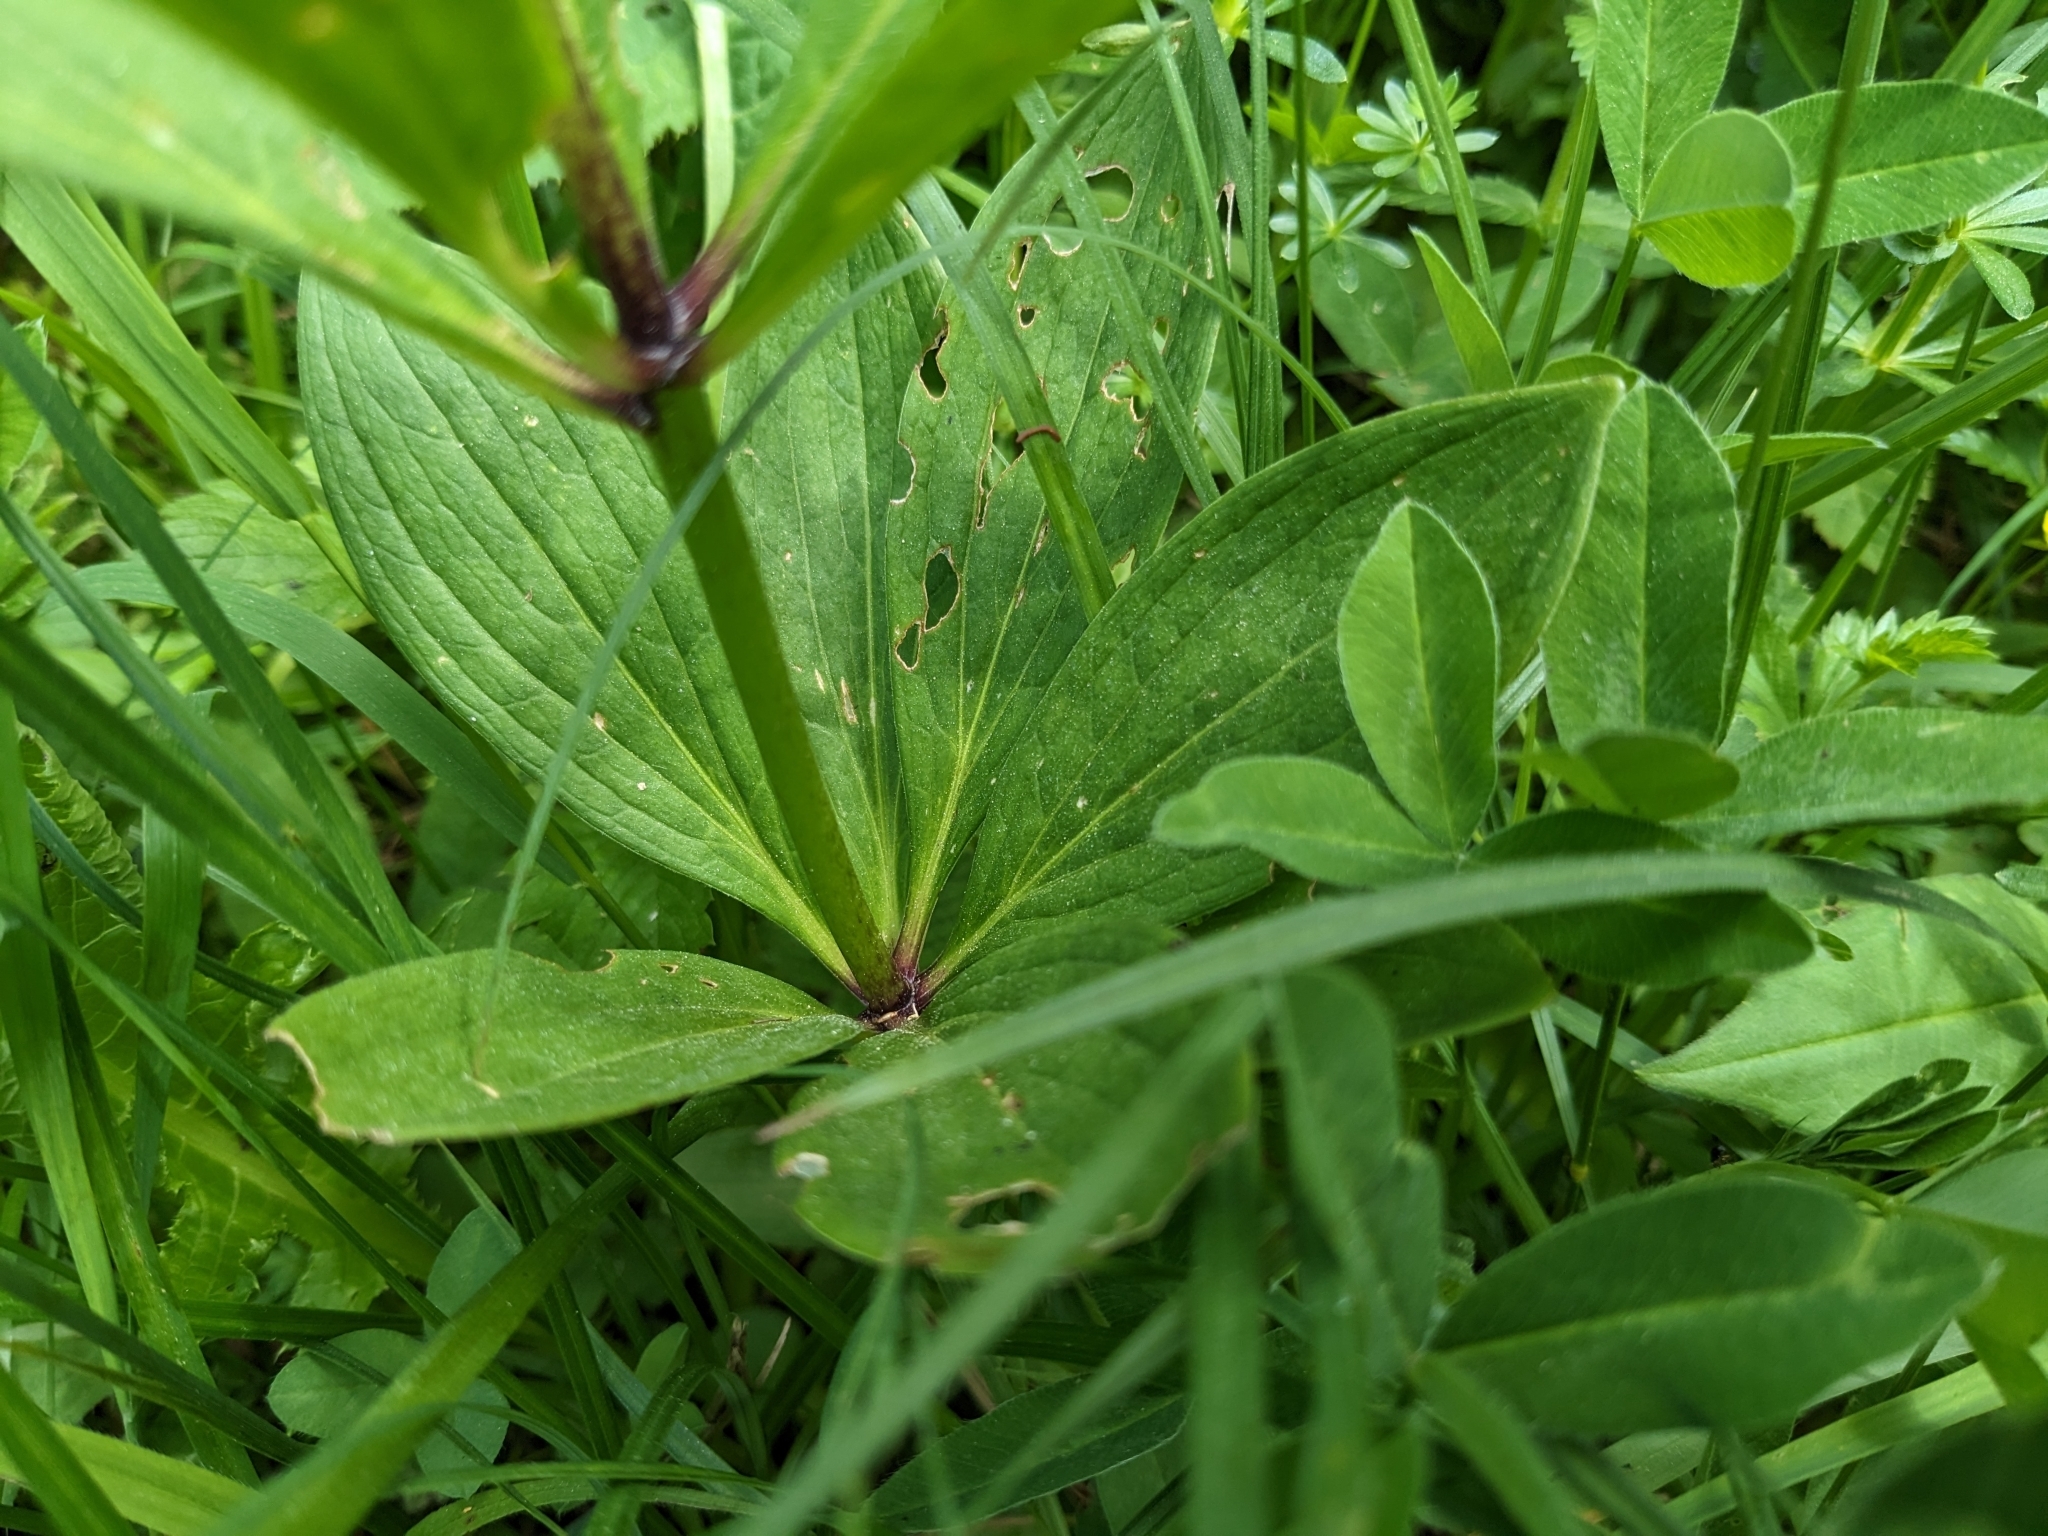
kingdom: Plantae
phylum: Tracheophyta
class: Liliopsida
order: Liliales
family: Liliaceae
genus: Lilium
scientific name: Lilium martagon
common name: Martagon lily
